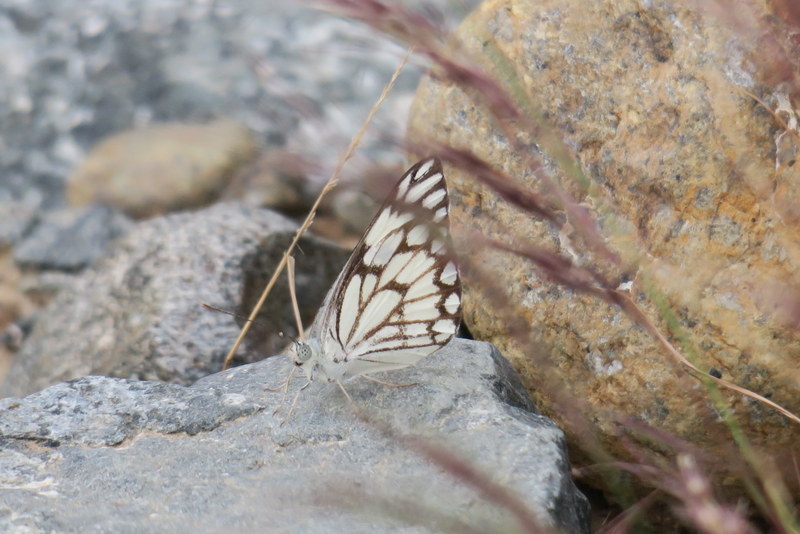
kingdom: Animalia
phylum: Arthropoda
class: Insecta
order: Lepidoptera
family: Pieridae
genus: Belenois
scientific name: Belenois aurota
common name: Brown-veined white
